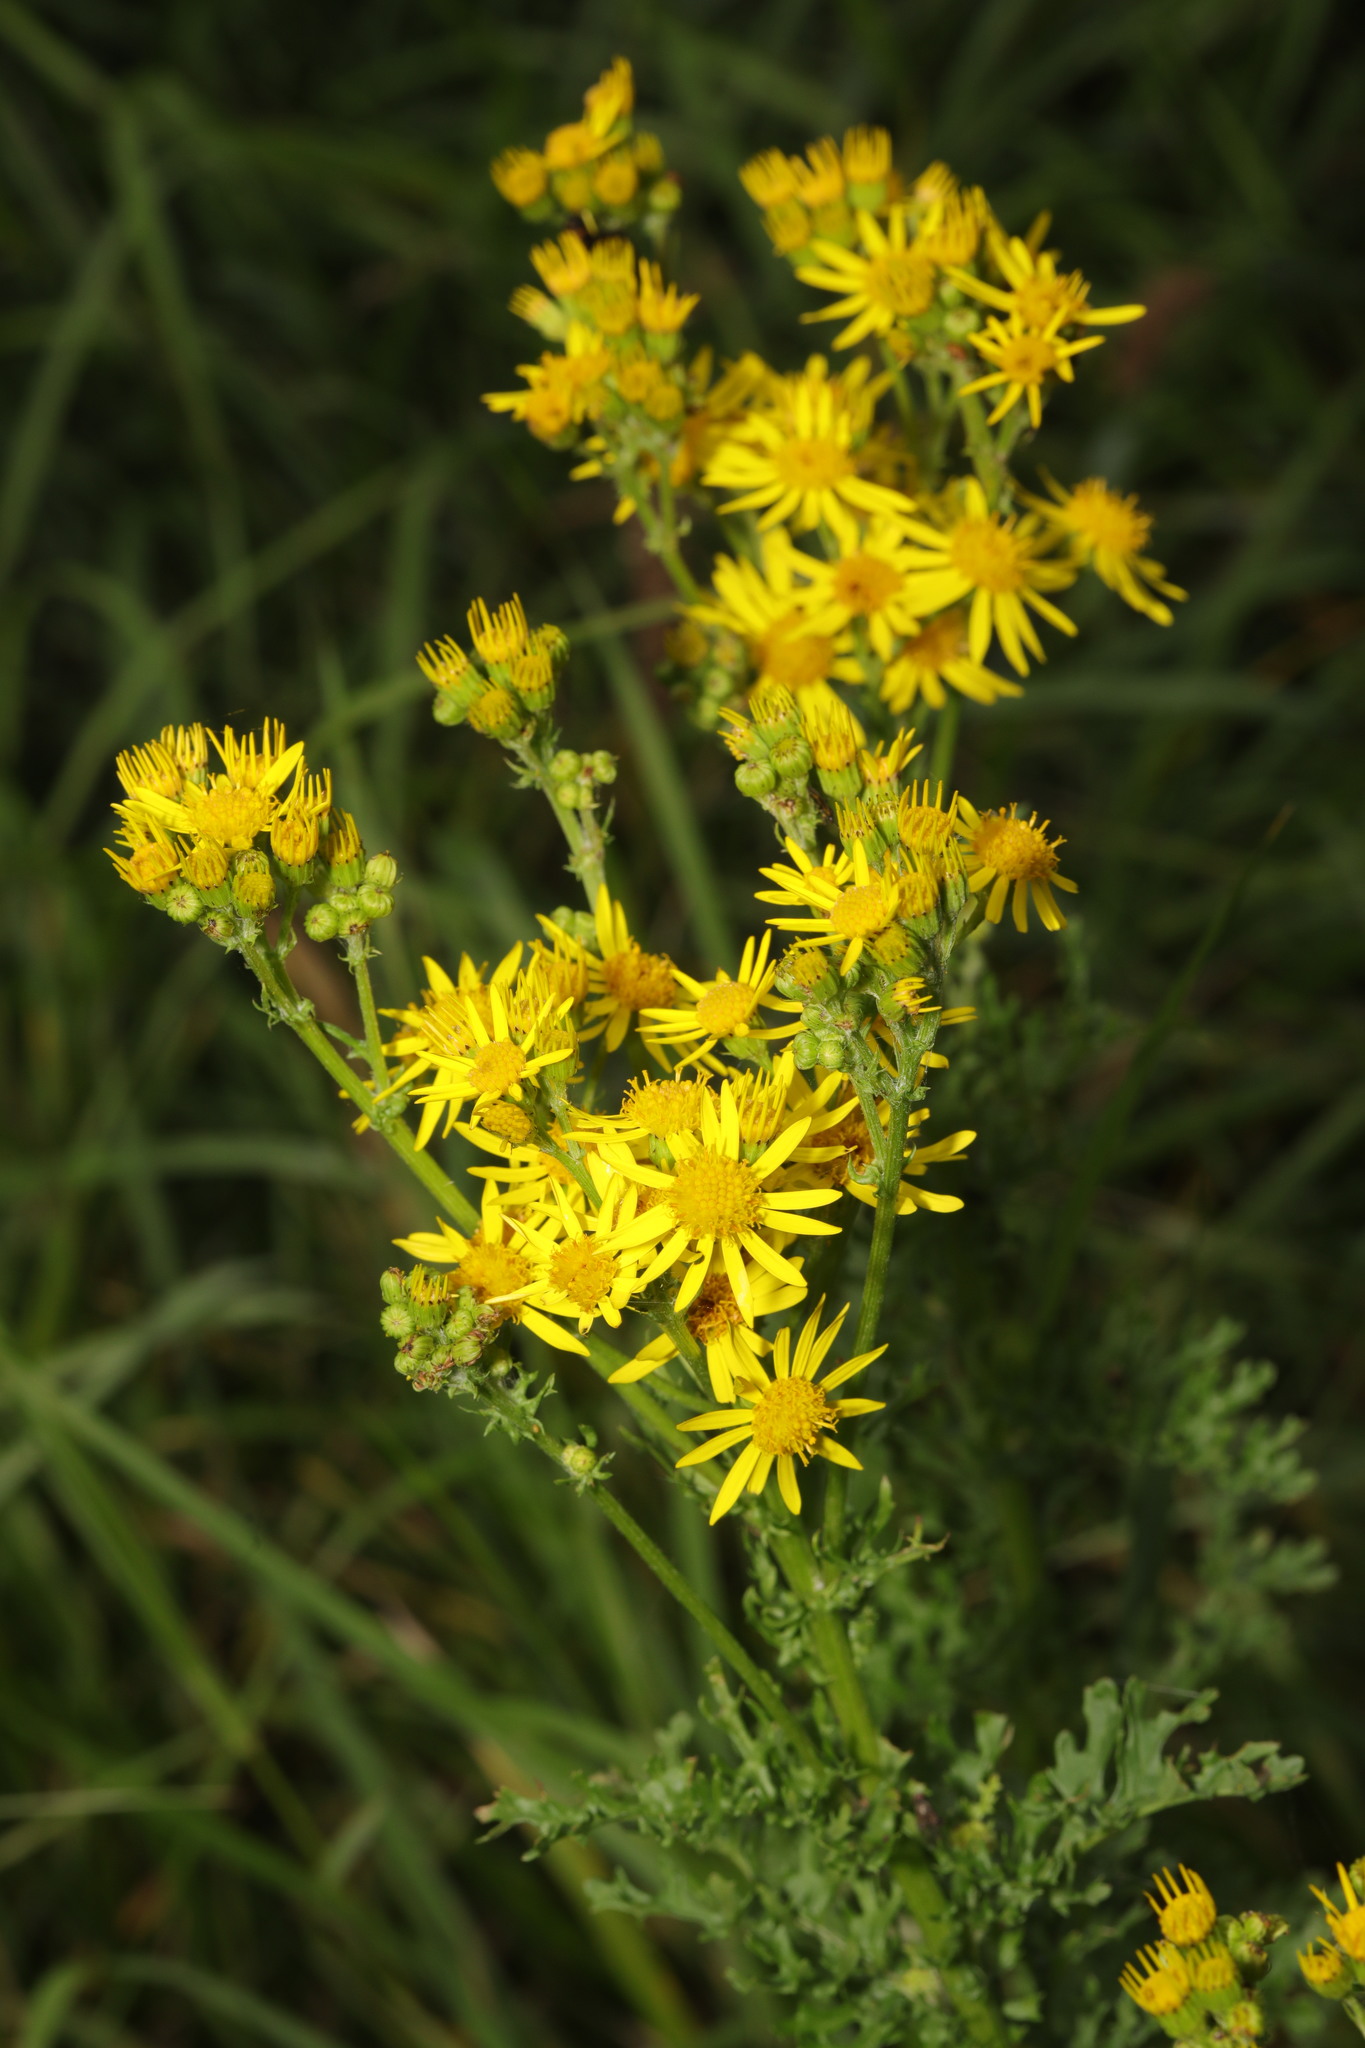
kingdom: Plantae
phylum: Tracheophyta
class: Magnoliopsida
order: Asterales
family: Asteraceae
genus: Jacobaea
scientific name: Jacobaea vulgaris
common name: Stinking willie
